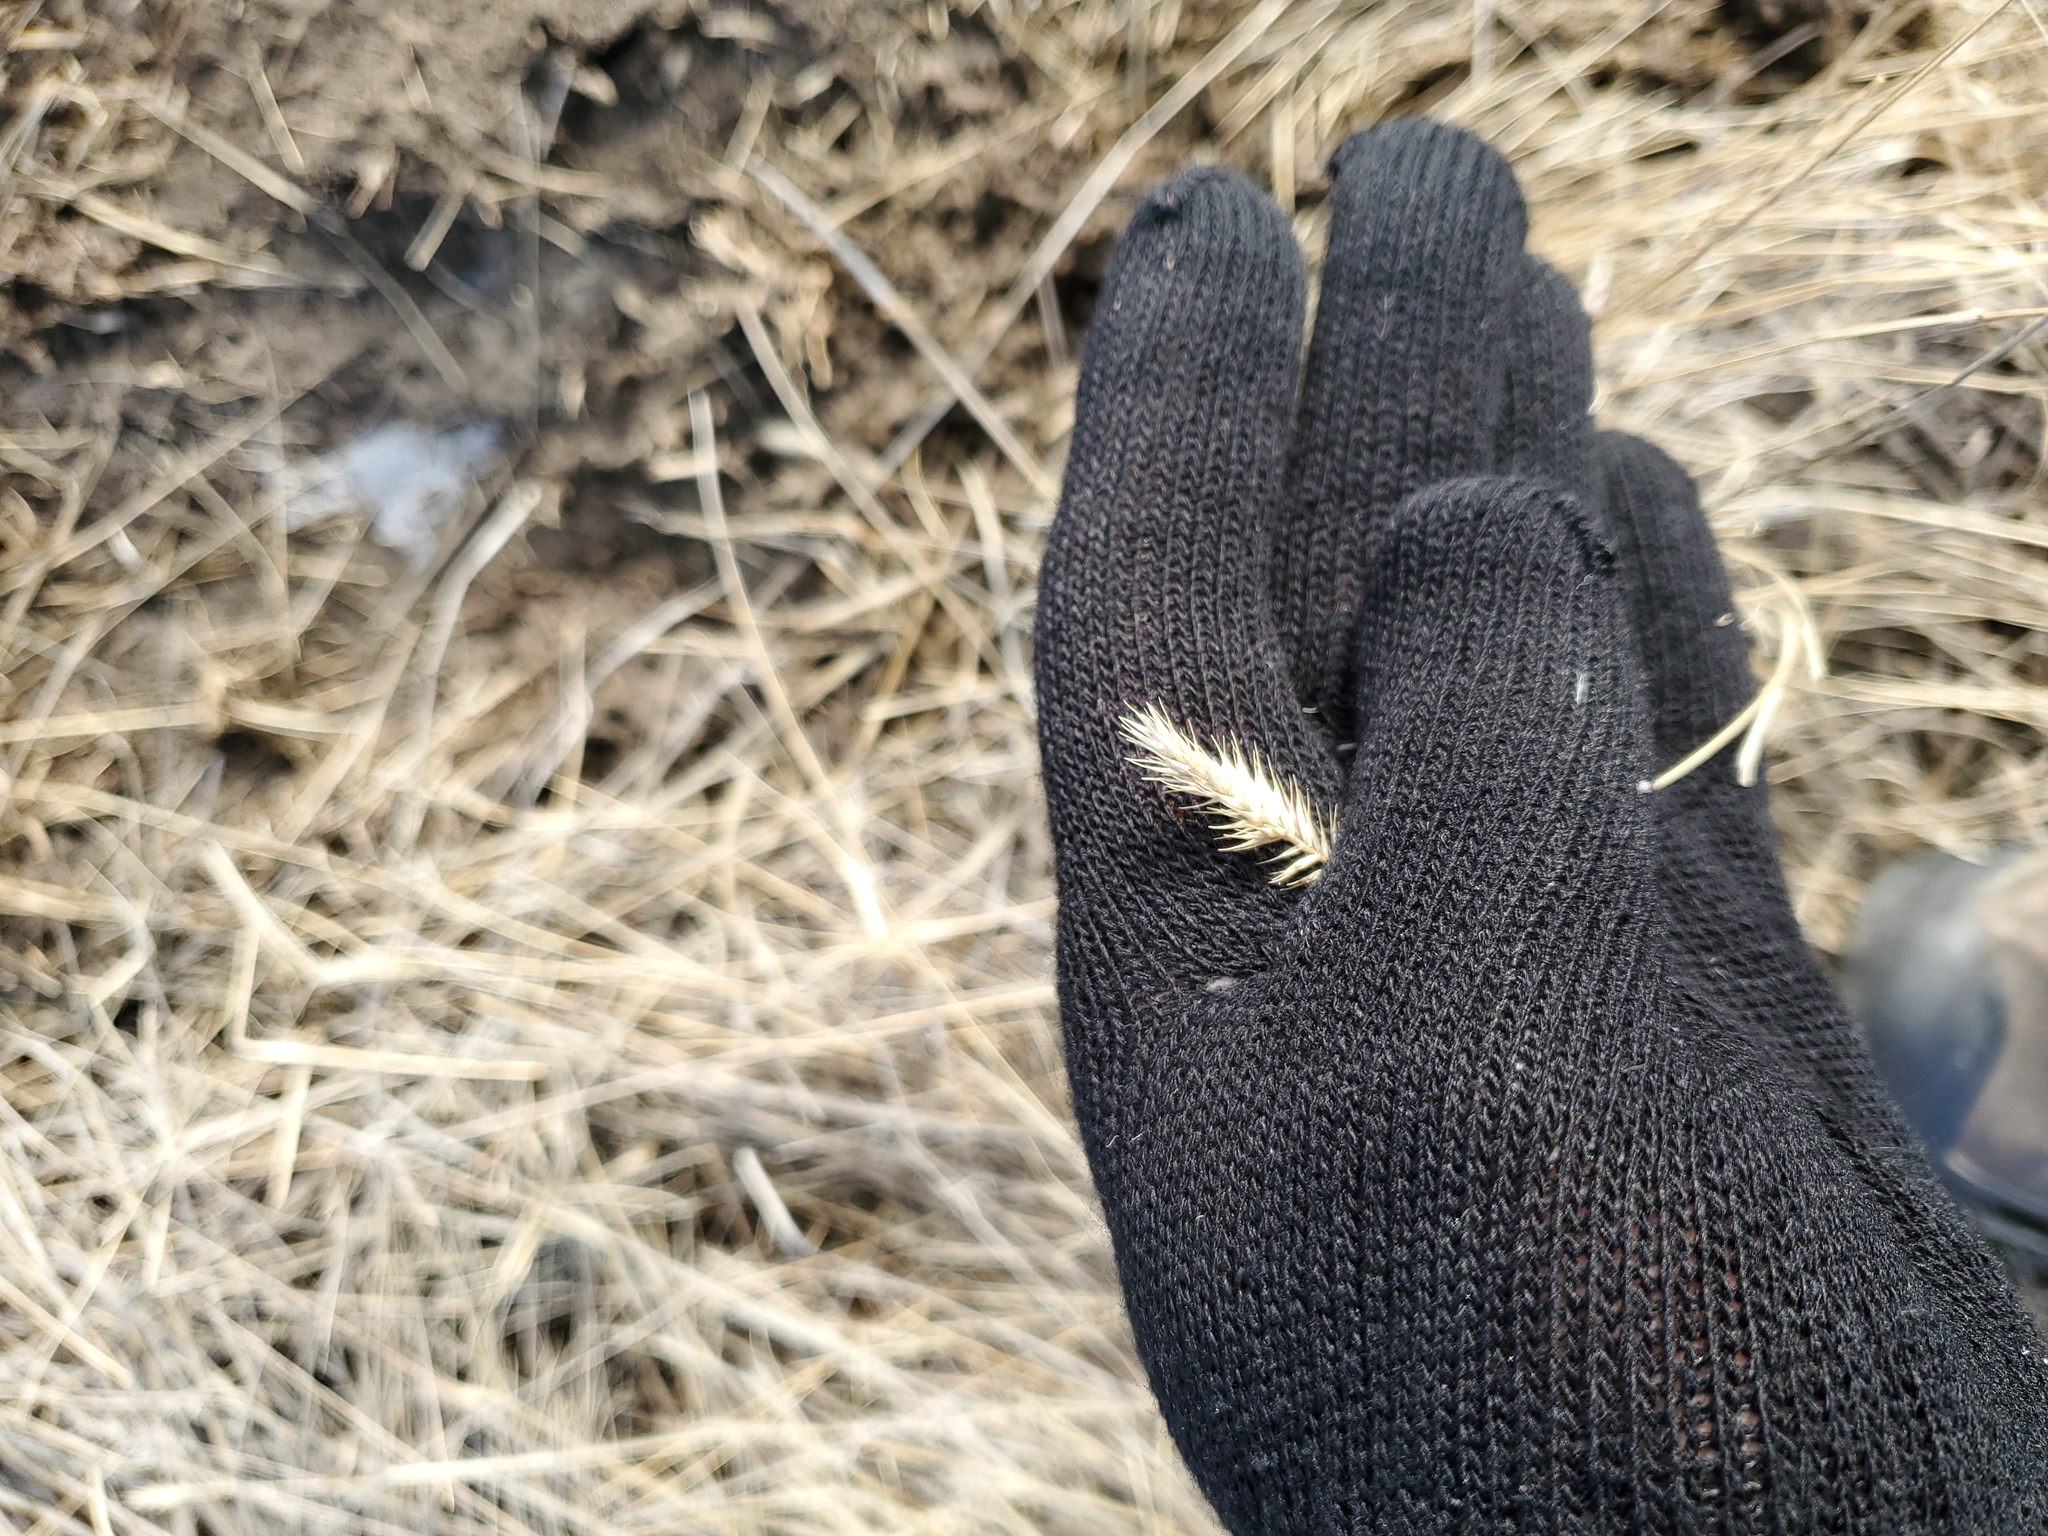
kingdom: Plantae
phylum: Tracheophyta
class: Liliopsida
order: Poales
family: Poaceae
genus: Agropyron
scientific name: Agropyron cristatum
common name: Crested wheatgrass
